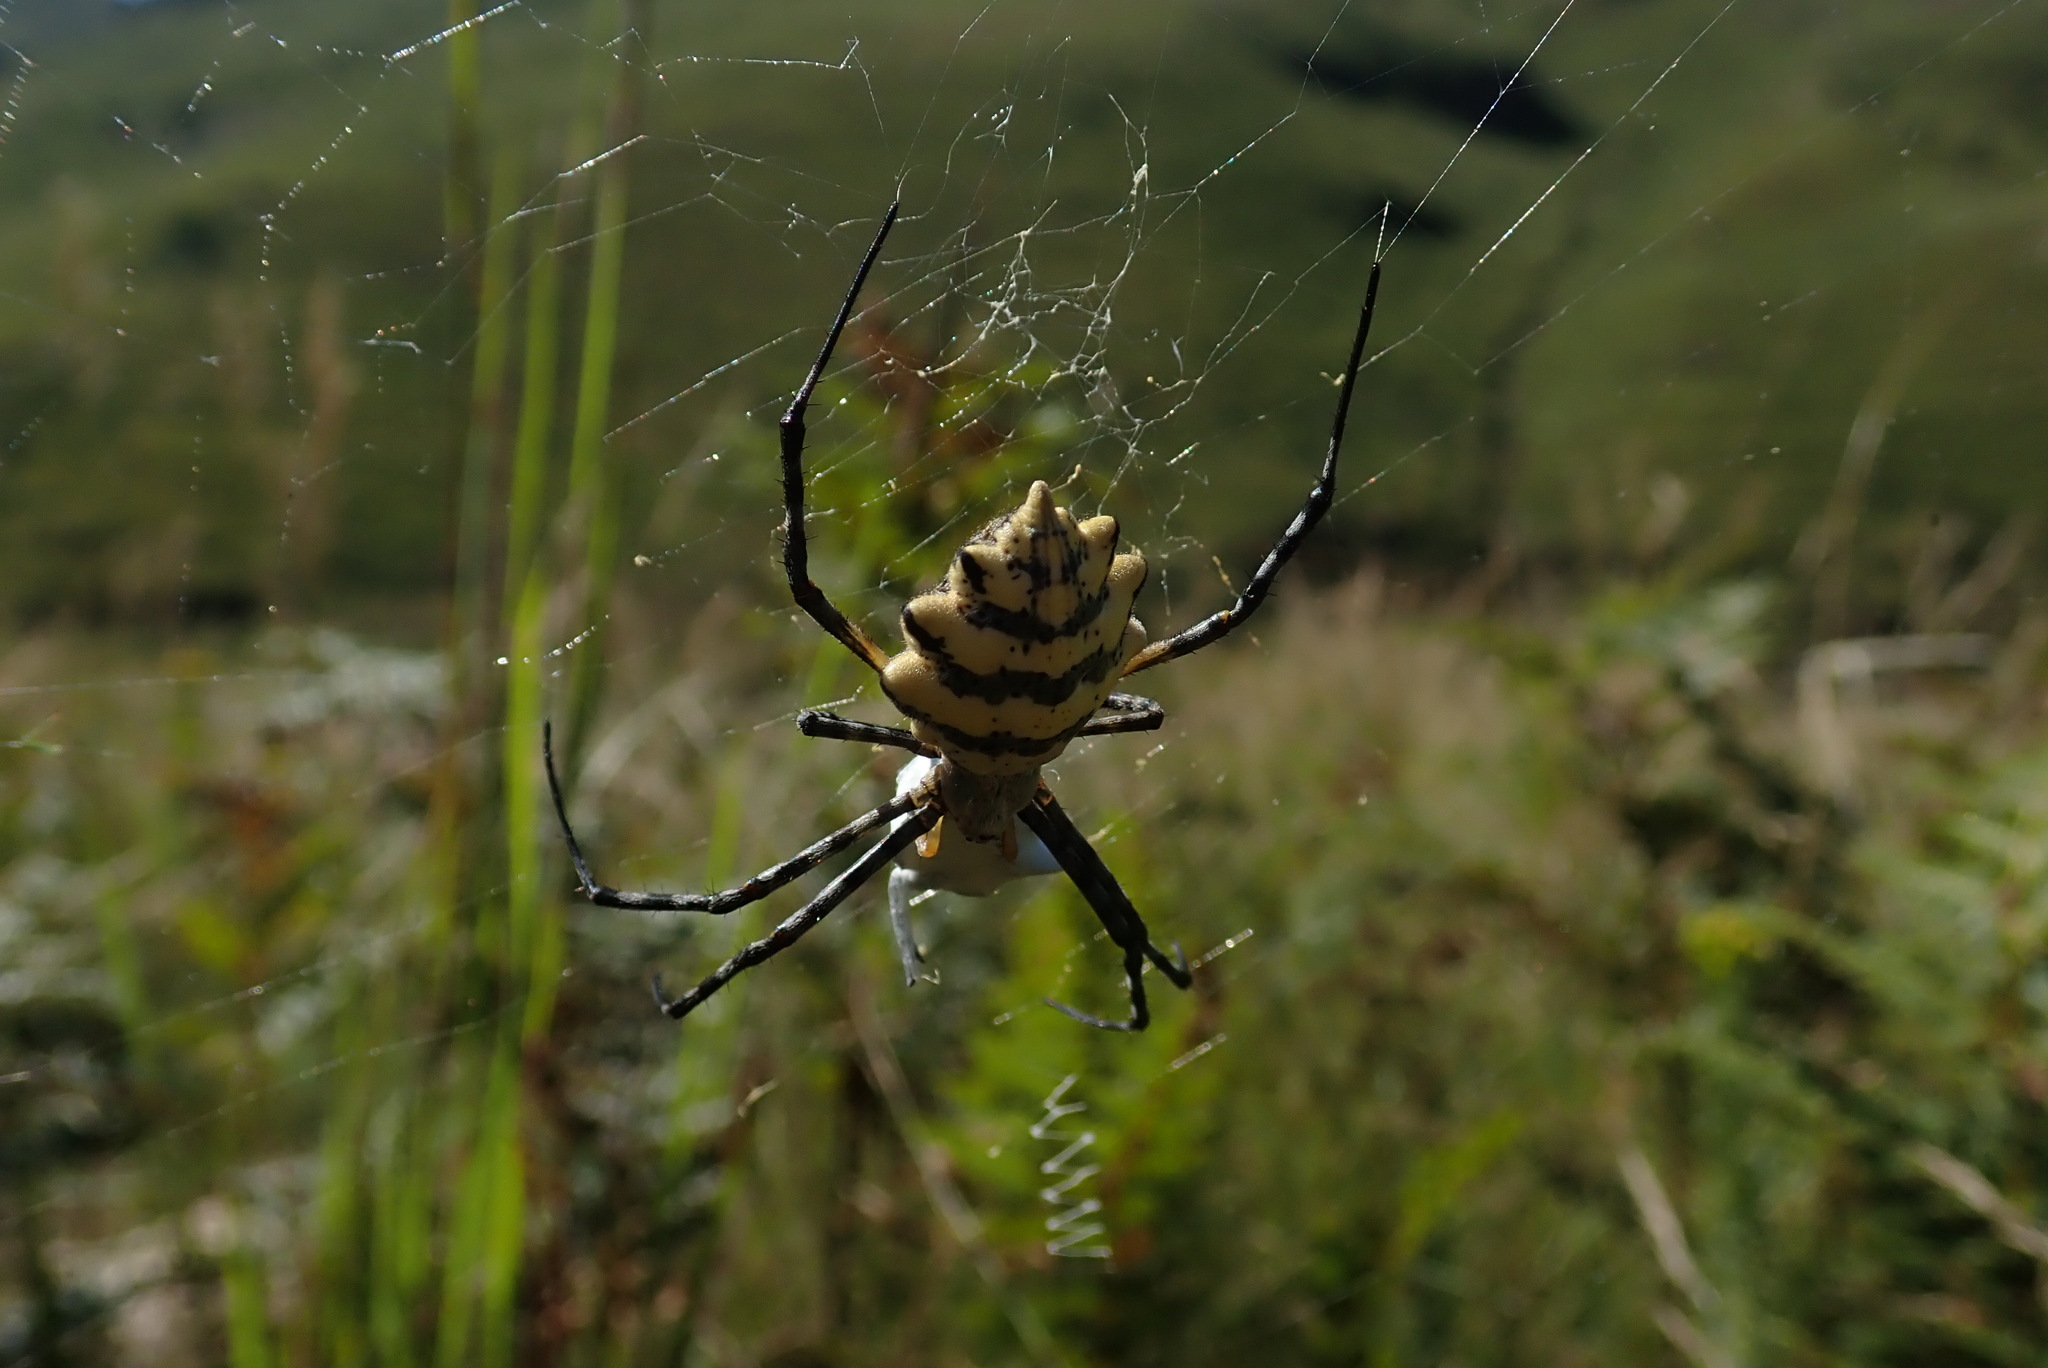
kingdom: Animalia
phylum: Arthropoda
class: Arachnida
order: Araneae
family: Araneidae
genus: Argiope
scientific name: Argiope australis
